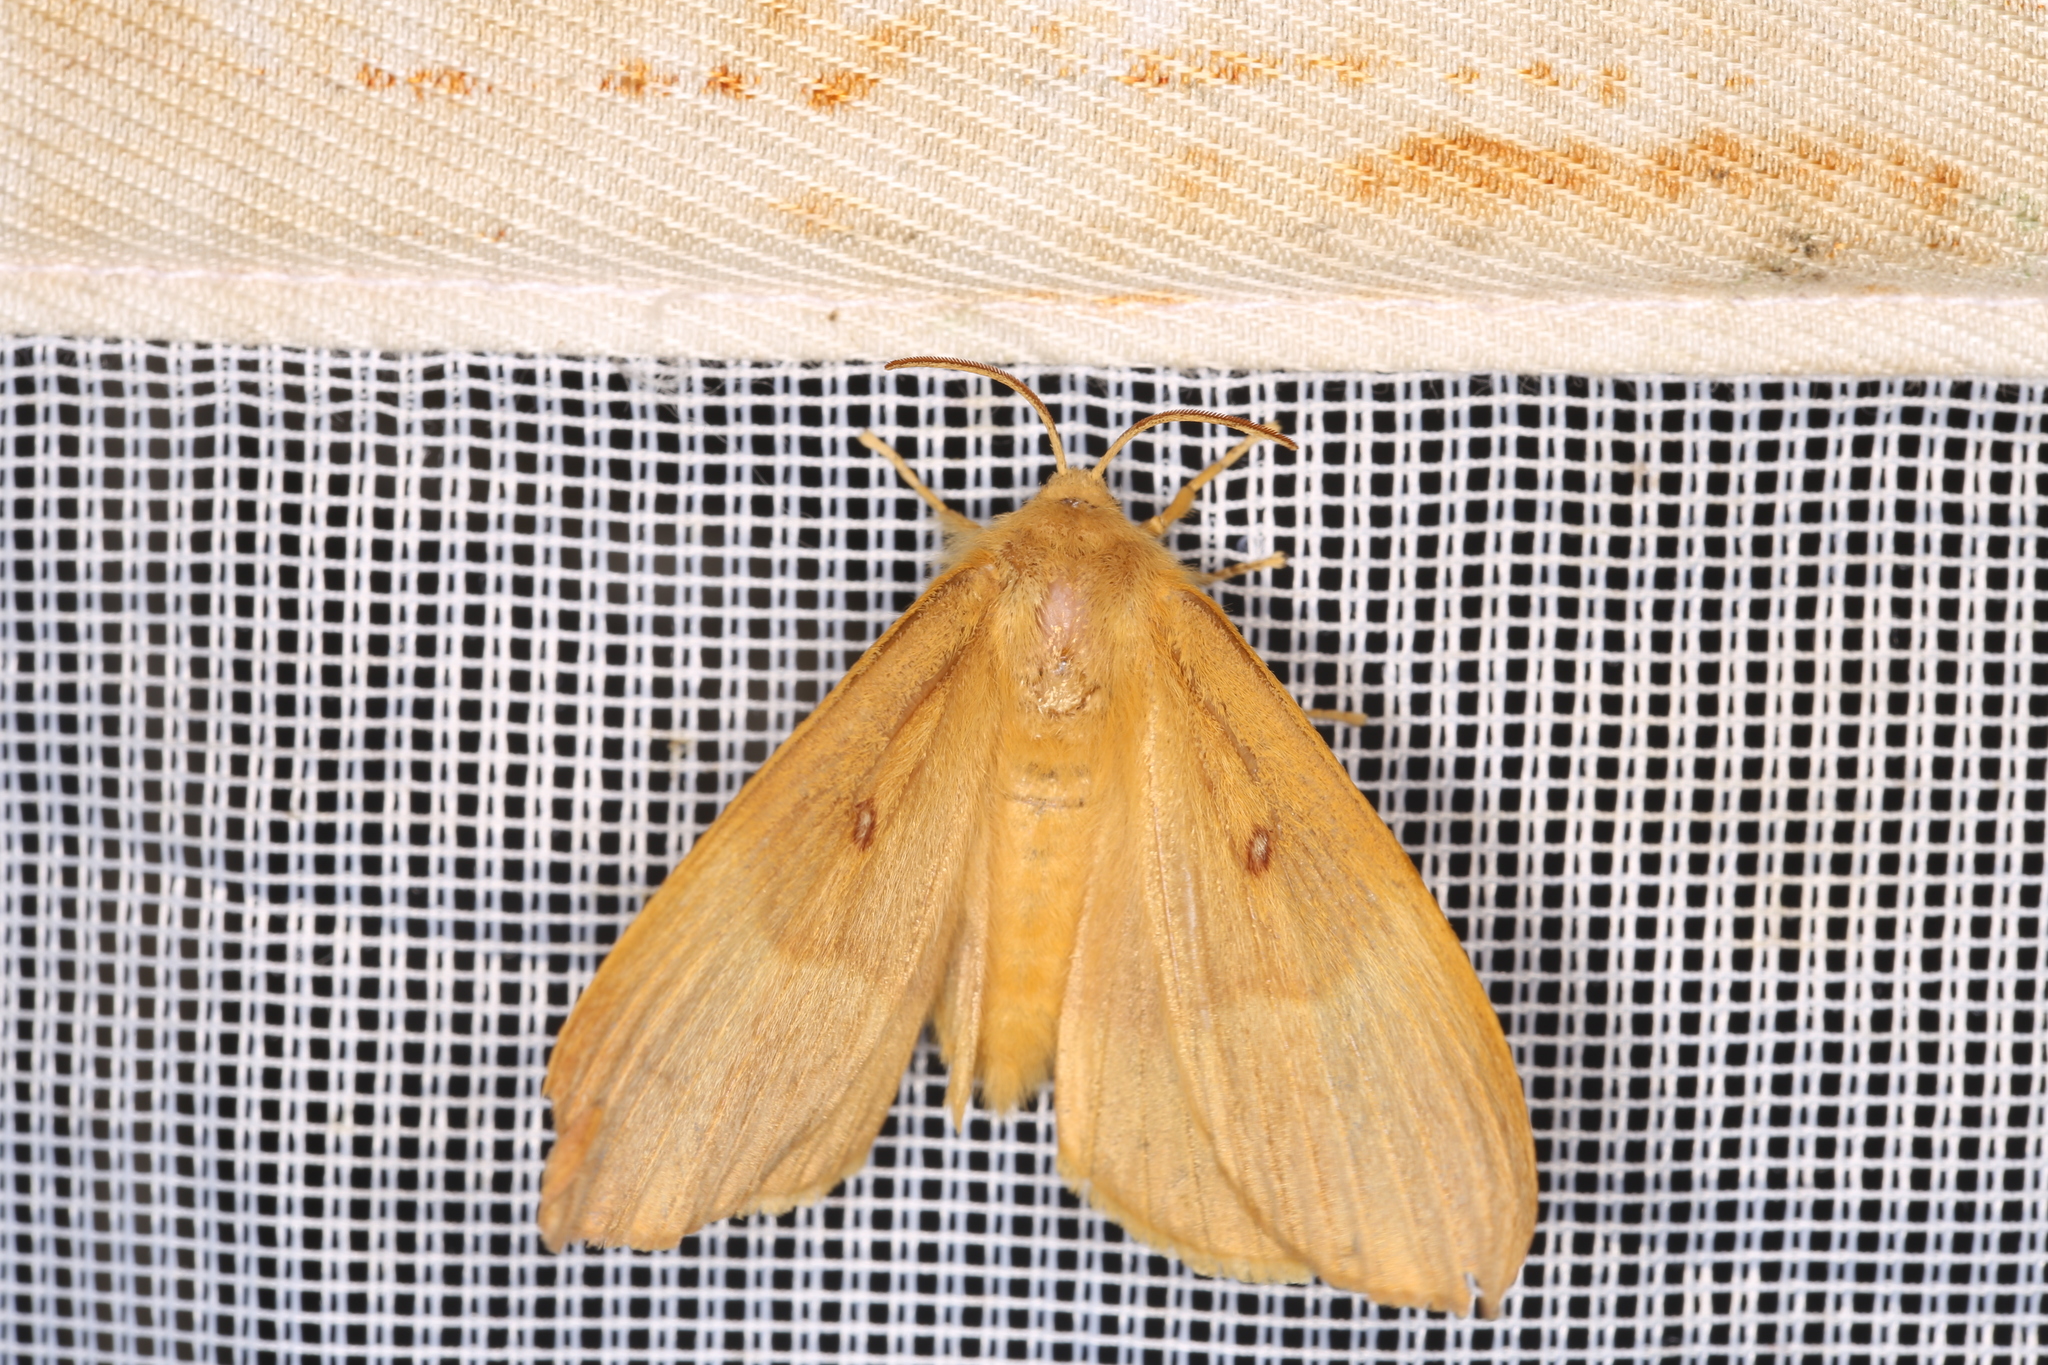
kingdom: Animalia
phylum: Arthropoda
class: Insecta
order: Lepidoptera
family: Lasiocampidae
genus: Lasiocampa
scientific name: Lasiocampa quercus
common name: Oak eggar
